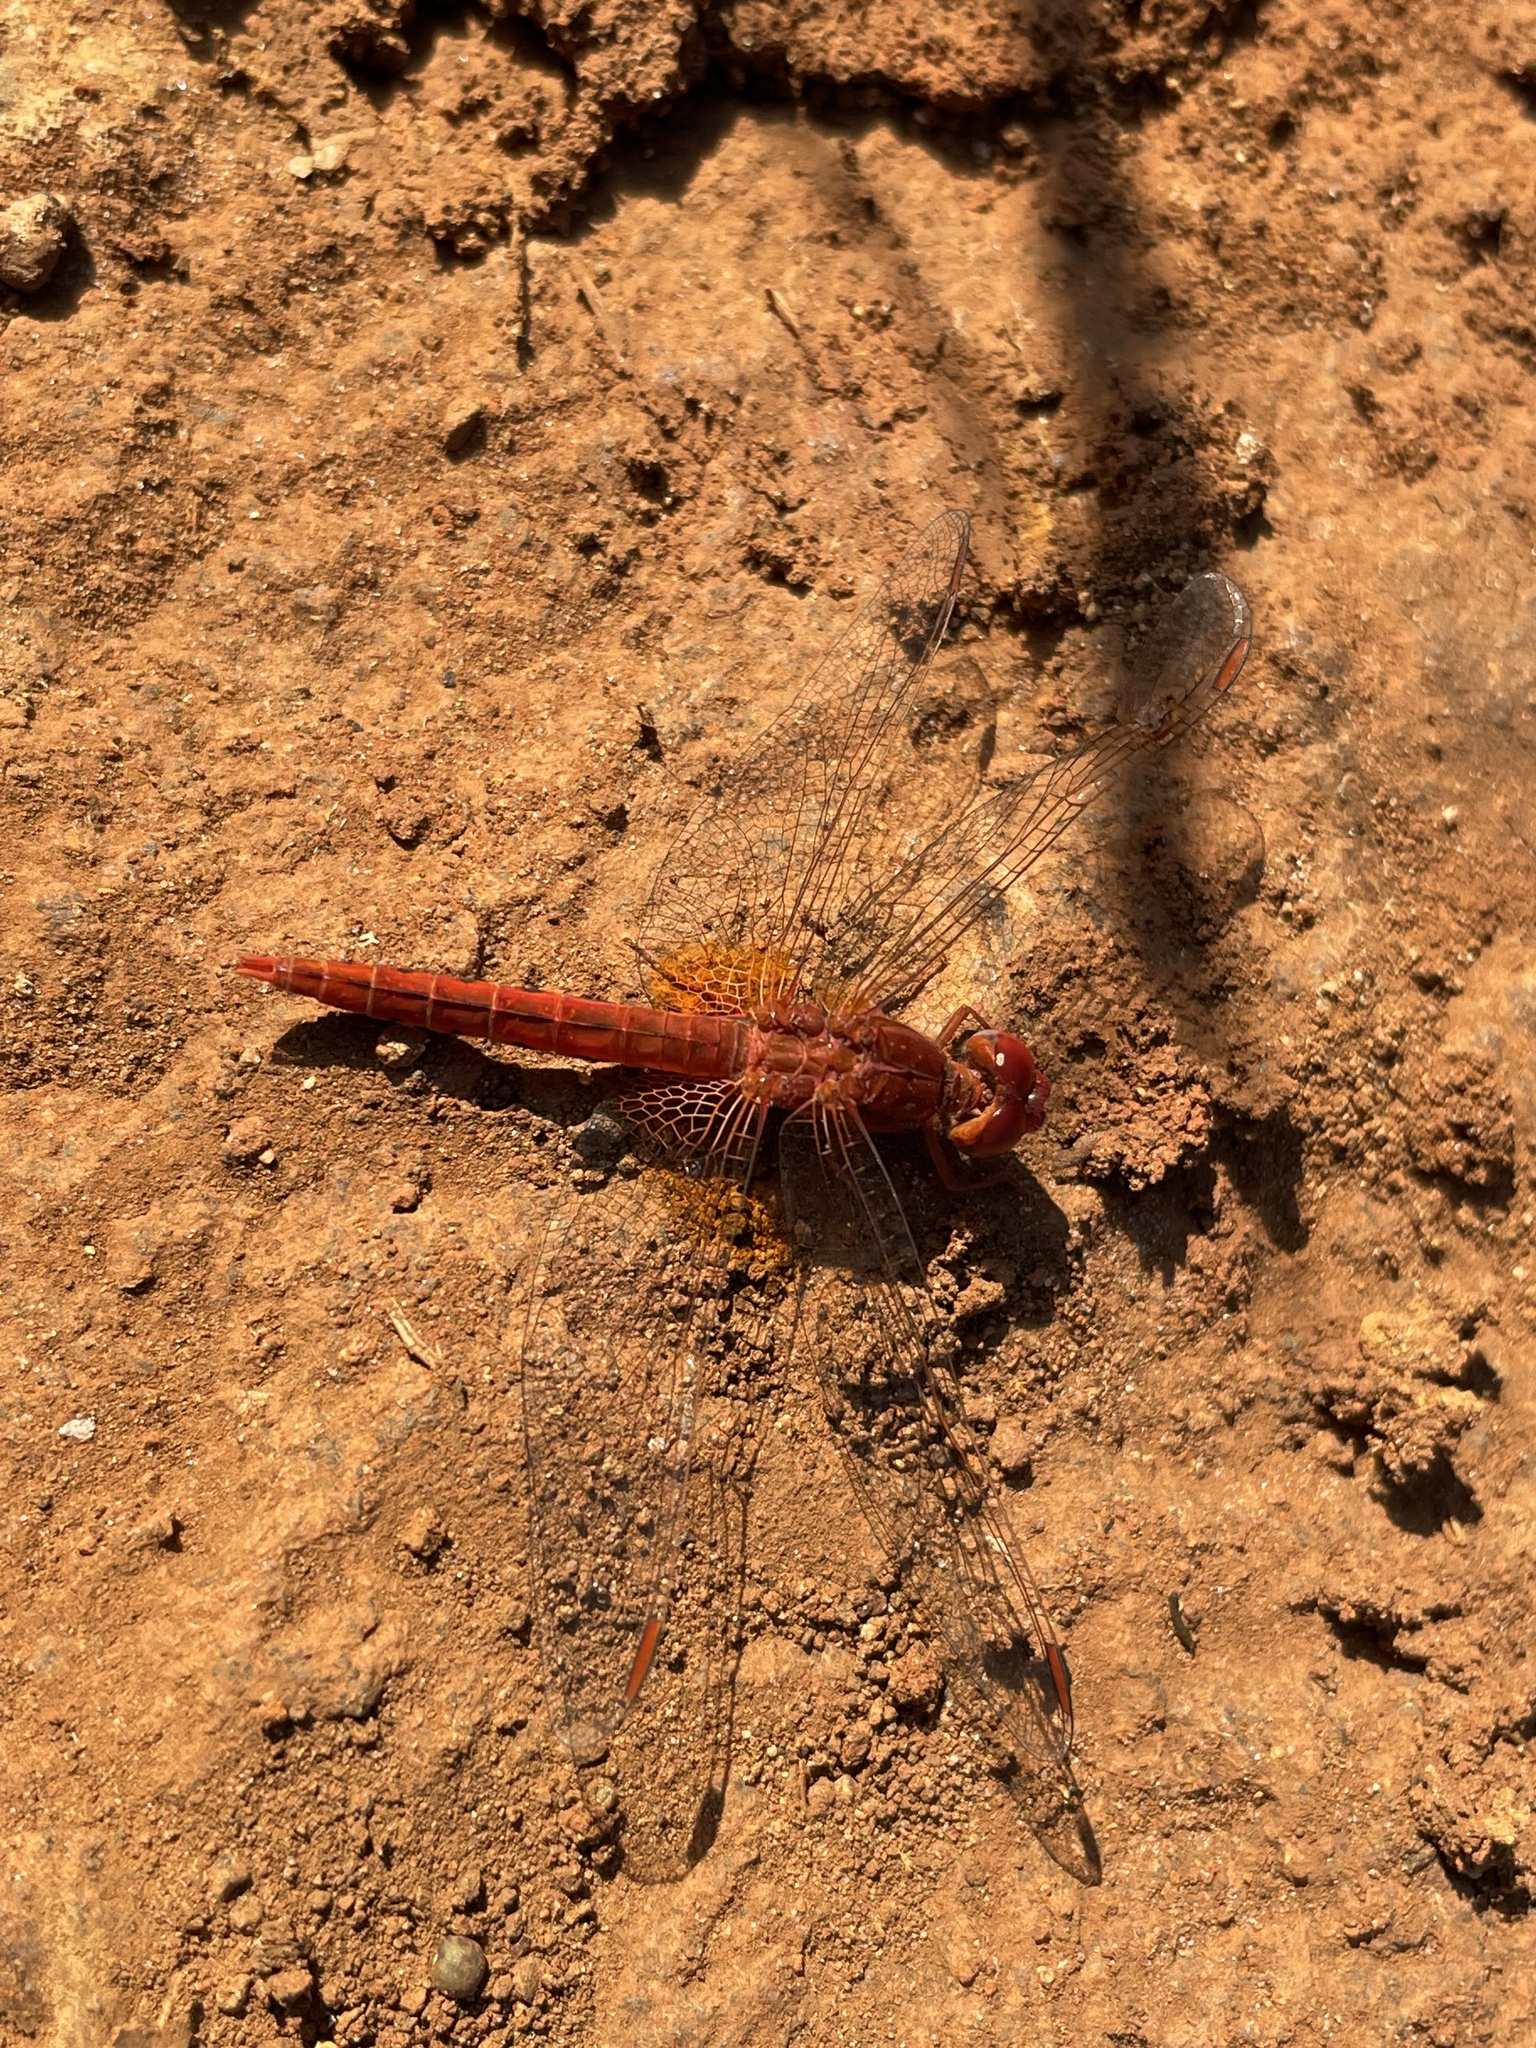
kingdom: Animalia
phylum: Arthropoda
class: Insecta
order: Odonata
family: Libellulidae
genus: Crocothemis
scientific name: Crocothemis sanguinolenta
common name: Little scarlet
